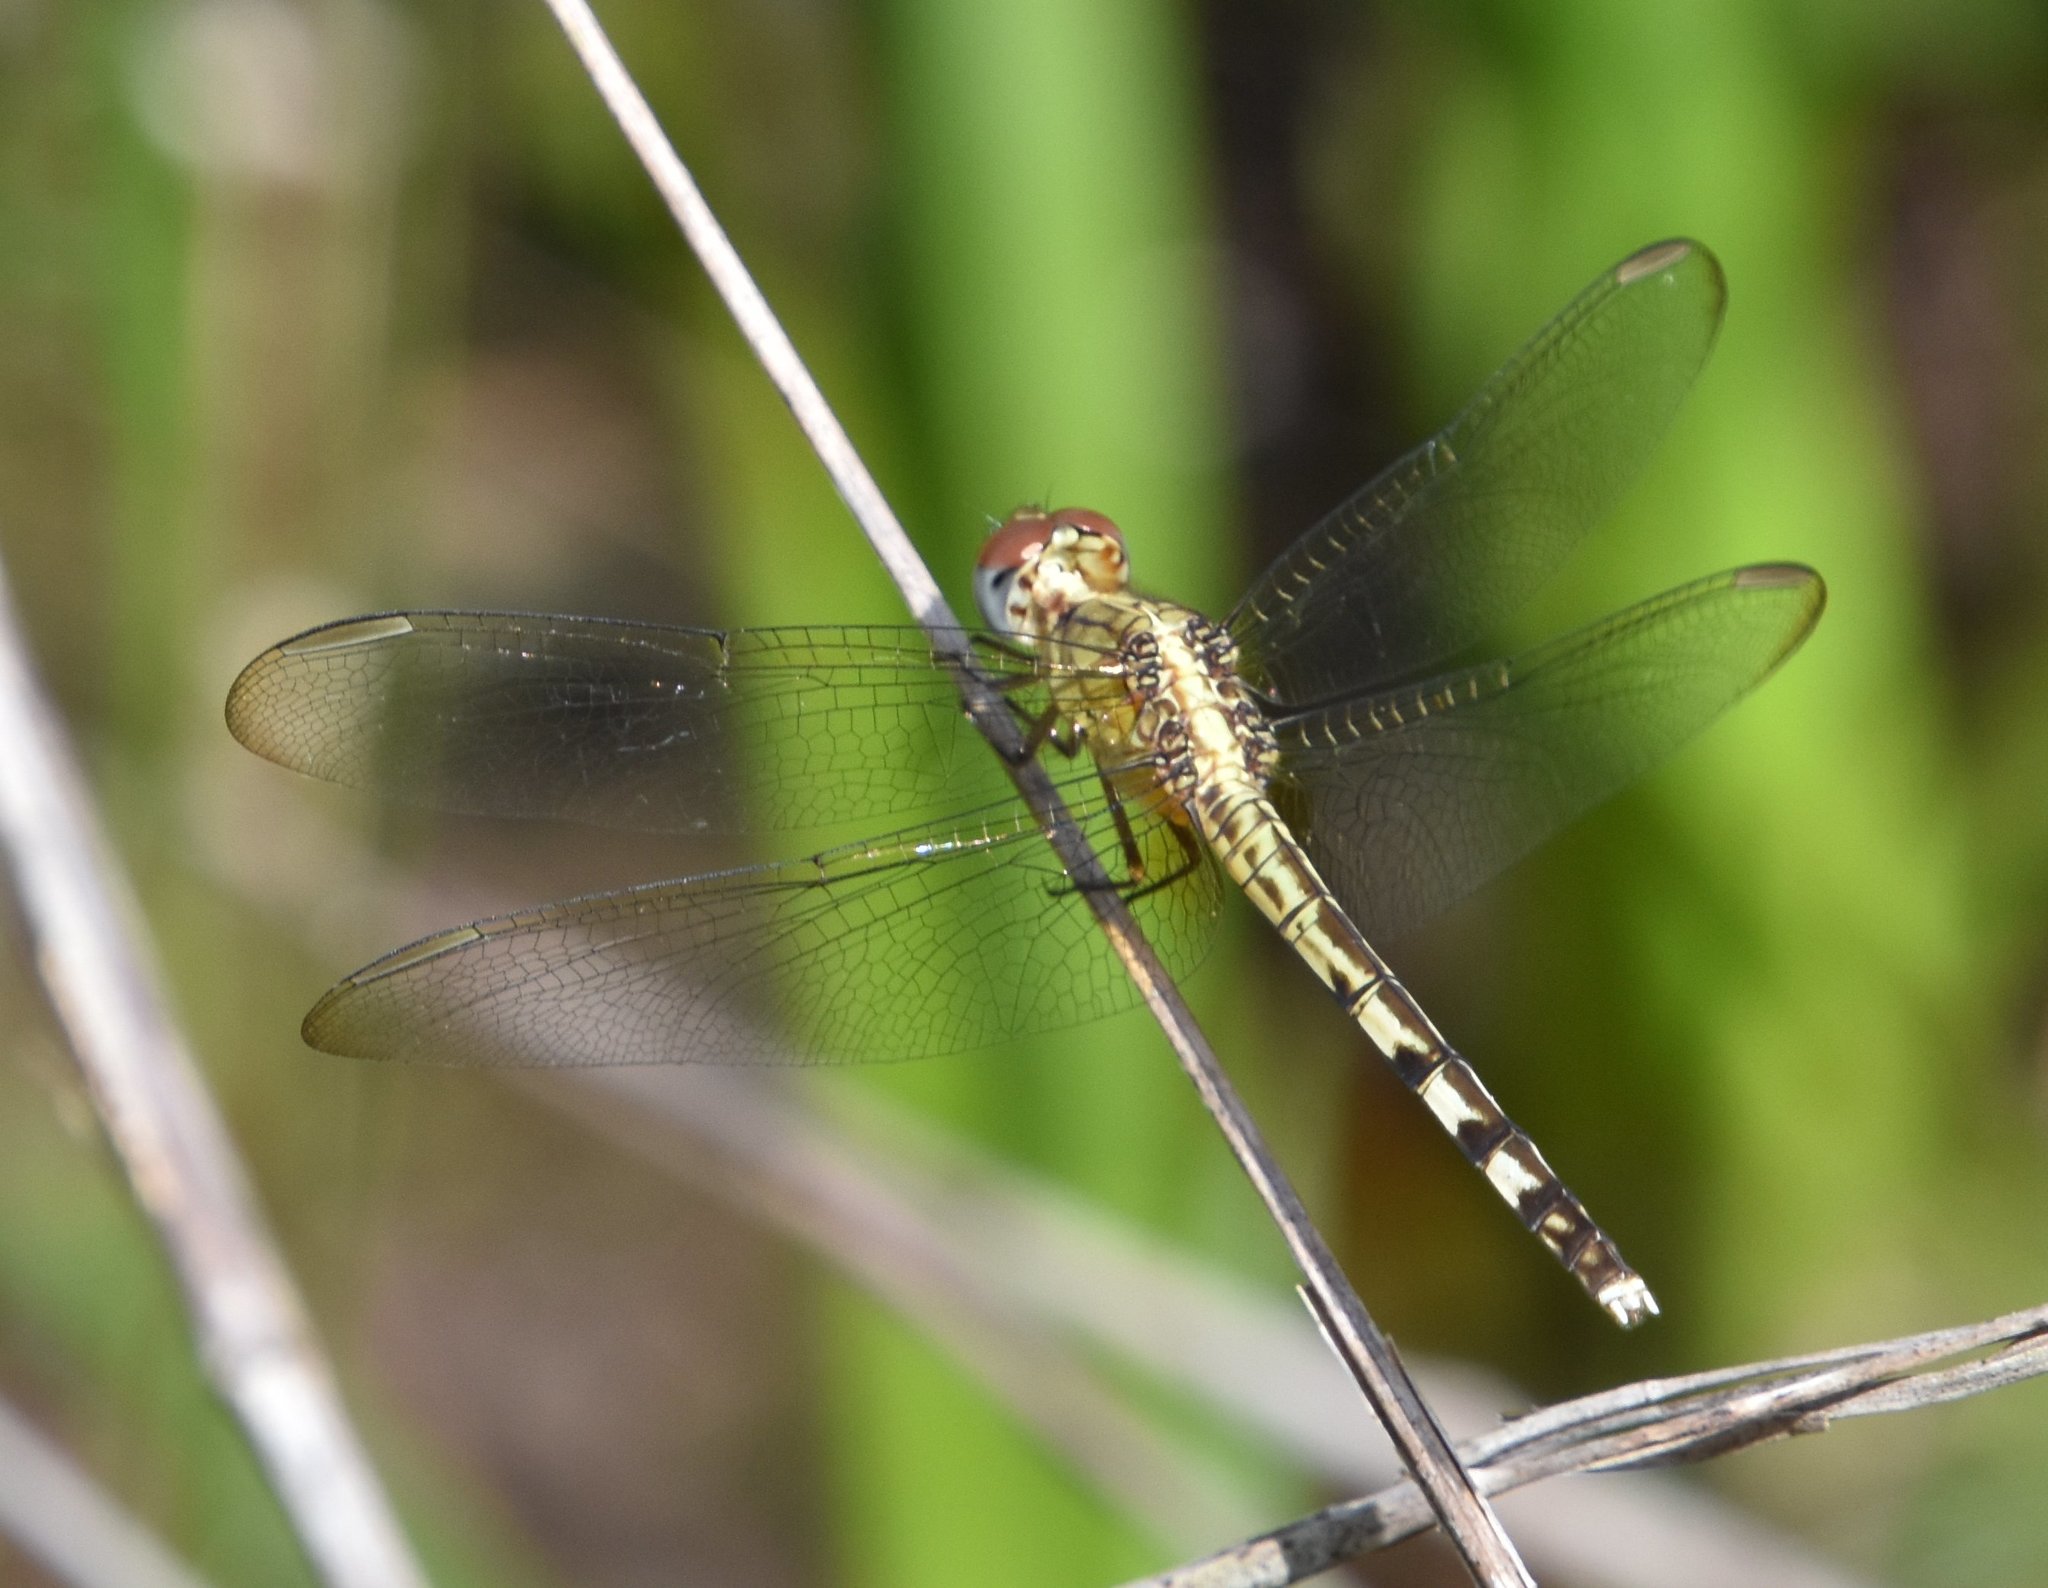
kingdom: Animalia
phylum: Arthropoda
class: Insecta
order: Odonata
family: Libellulidae
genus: Erythrodiplax
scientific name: Erythrodiplax umbrata
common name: Band-winged dragonlet
